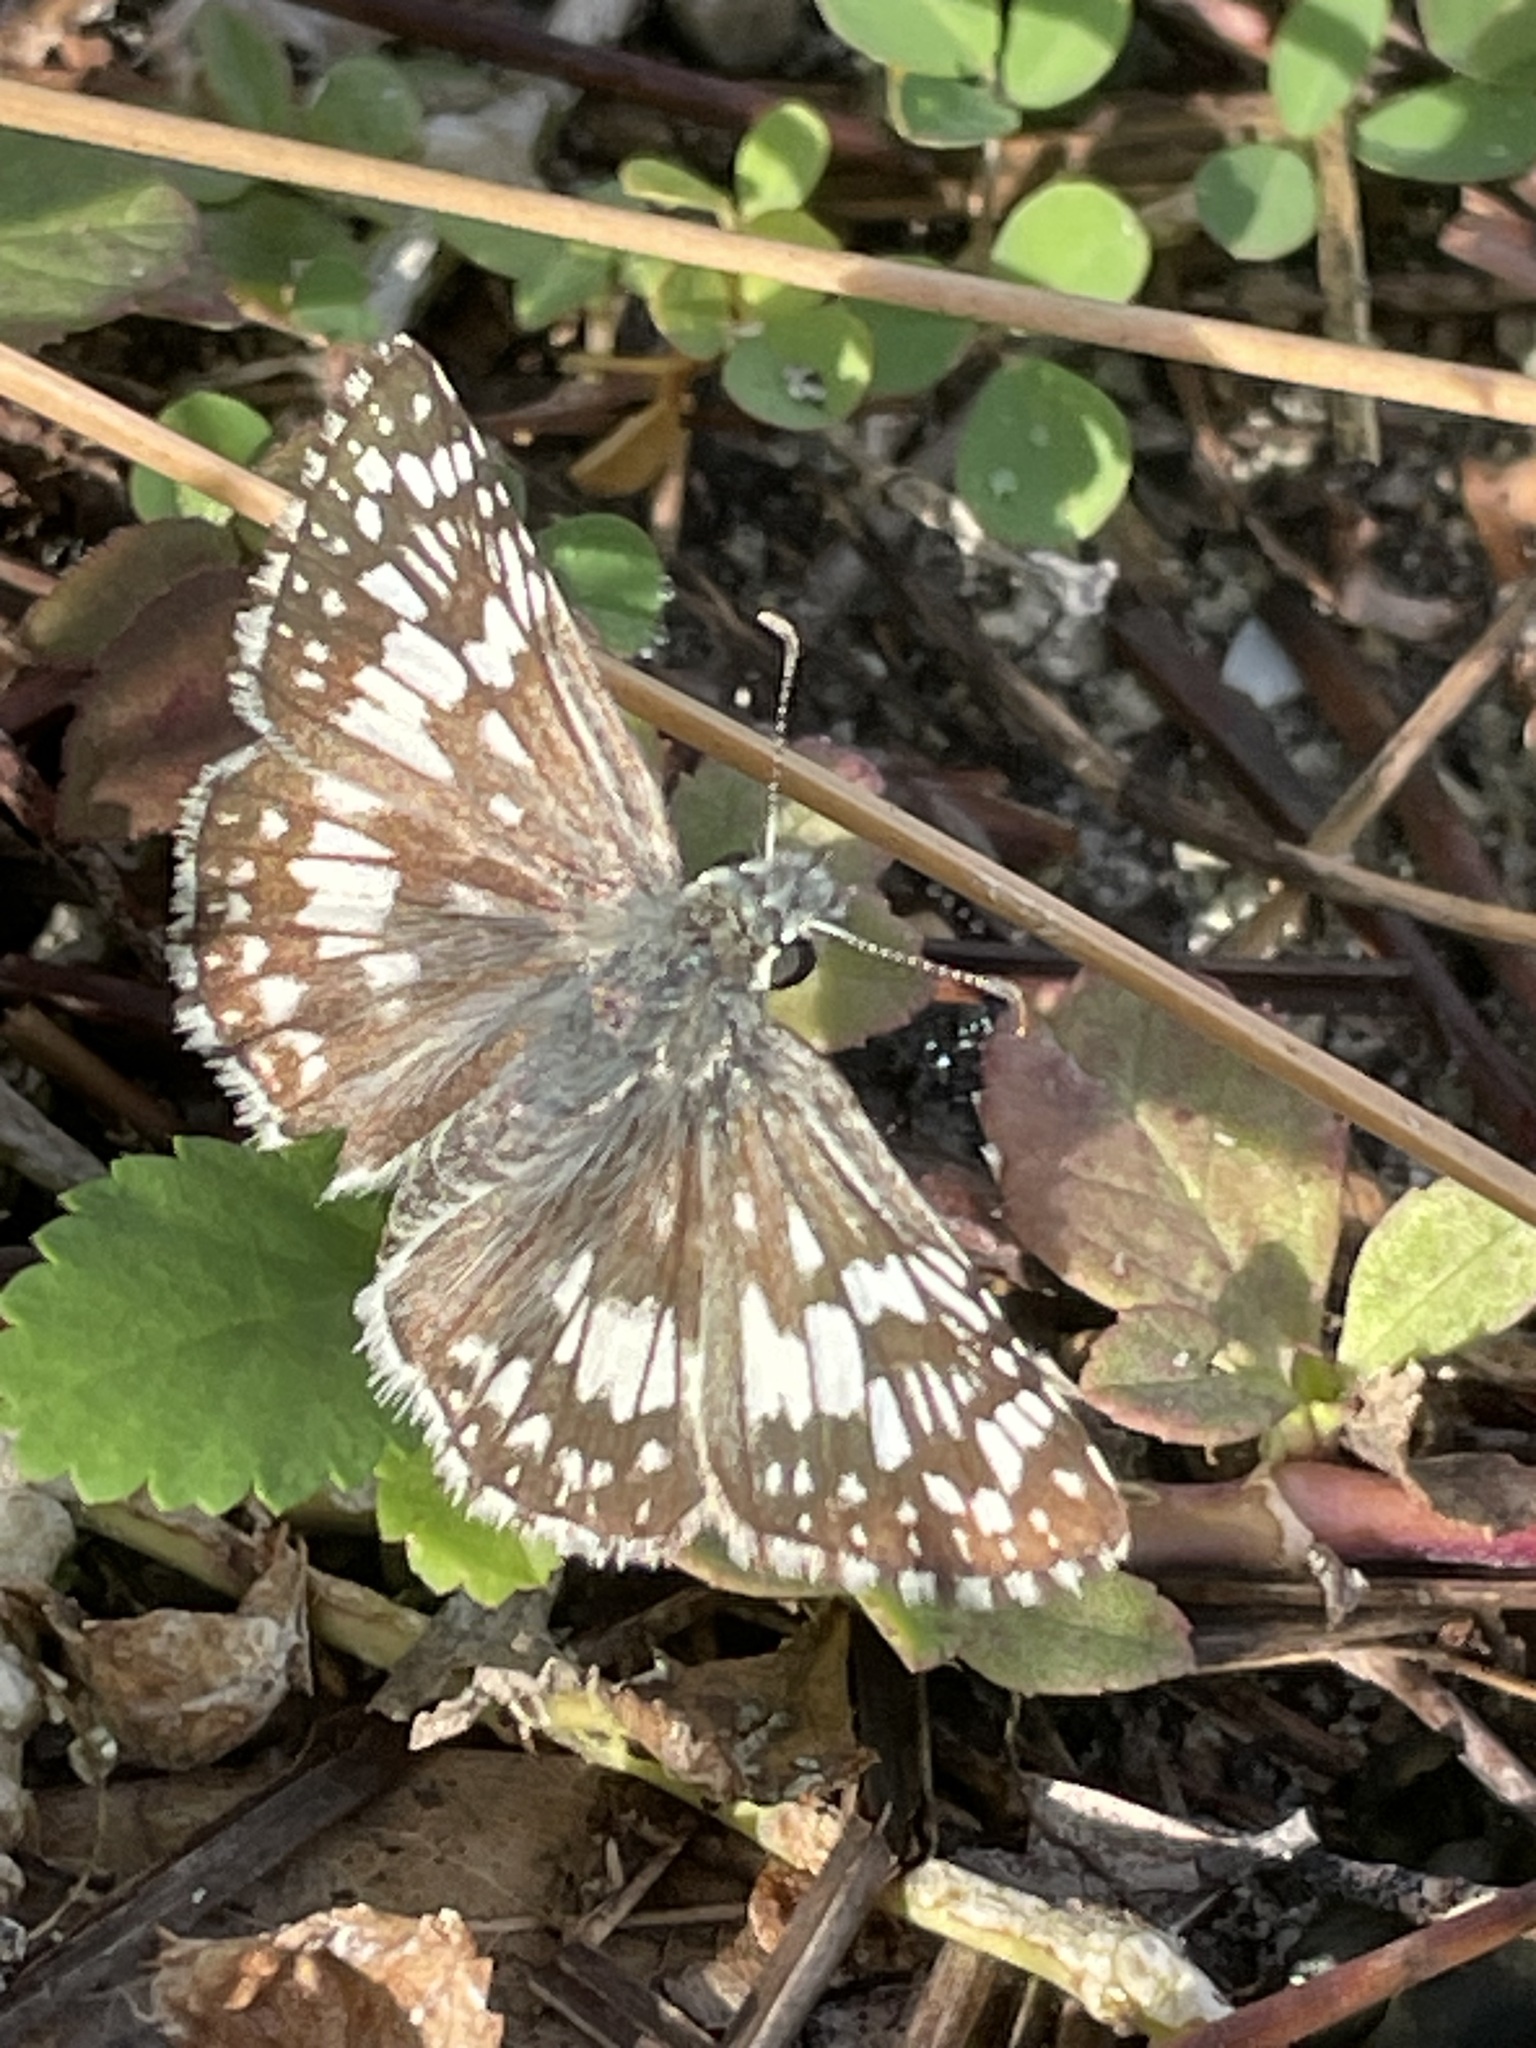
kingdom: Animalia
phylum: Arthropoda
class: Insecta
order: Lepidoptera
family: Hesperiidae
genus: Burnsius
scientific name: Burnsius albezens
